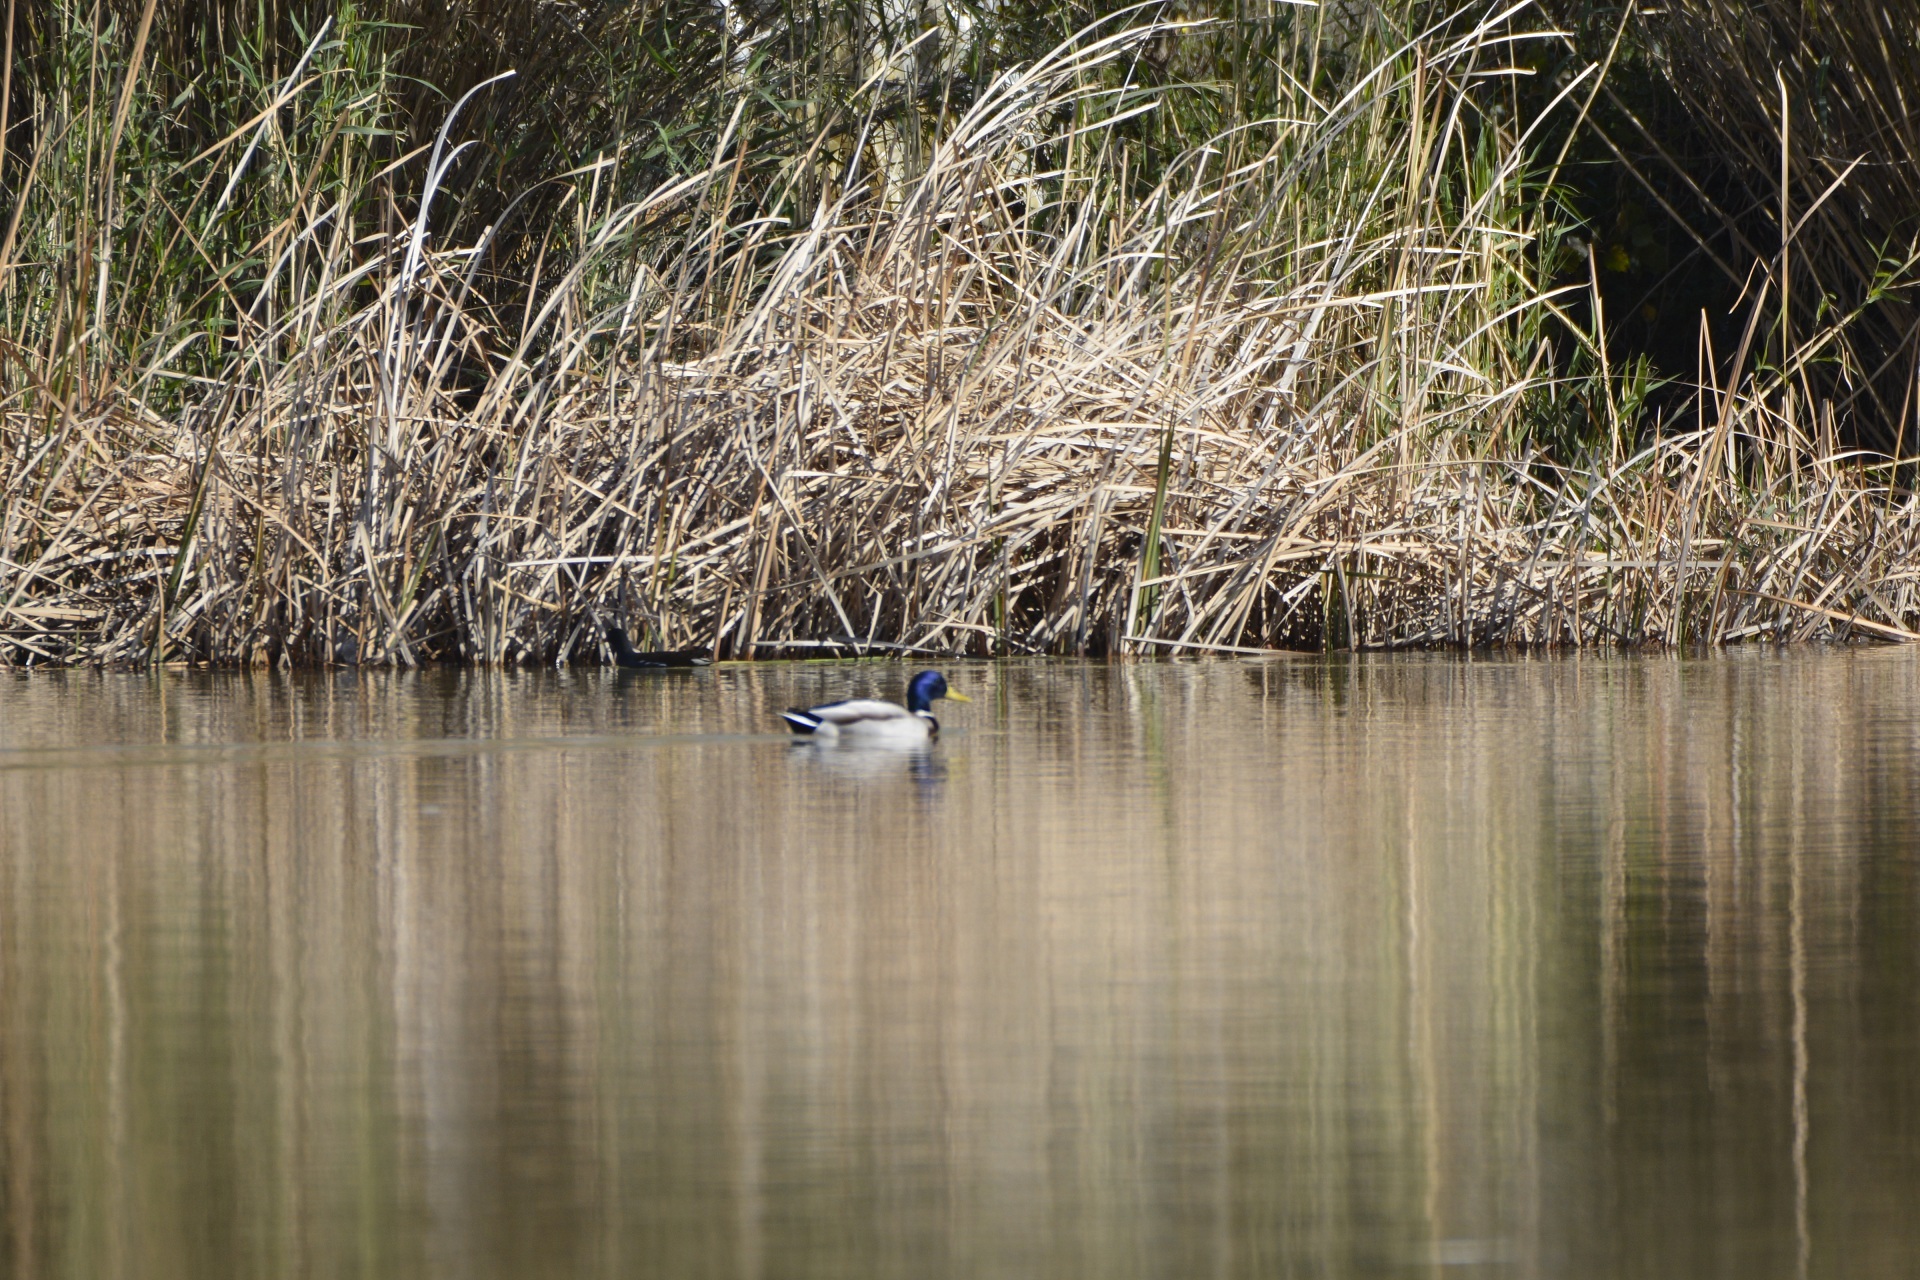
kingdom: Animalia
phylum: Chordata
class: Aves
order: Anseriformes
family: Anatidae
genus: Anas
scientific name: Anas platyrhynchos
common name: Mallard
